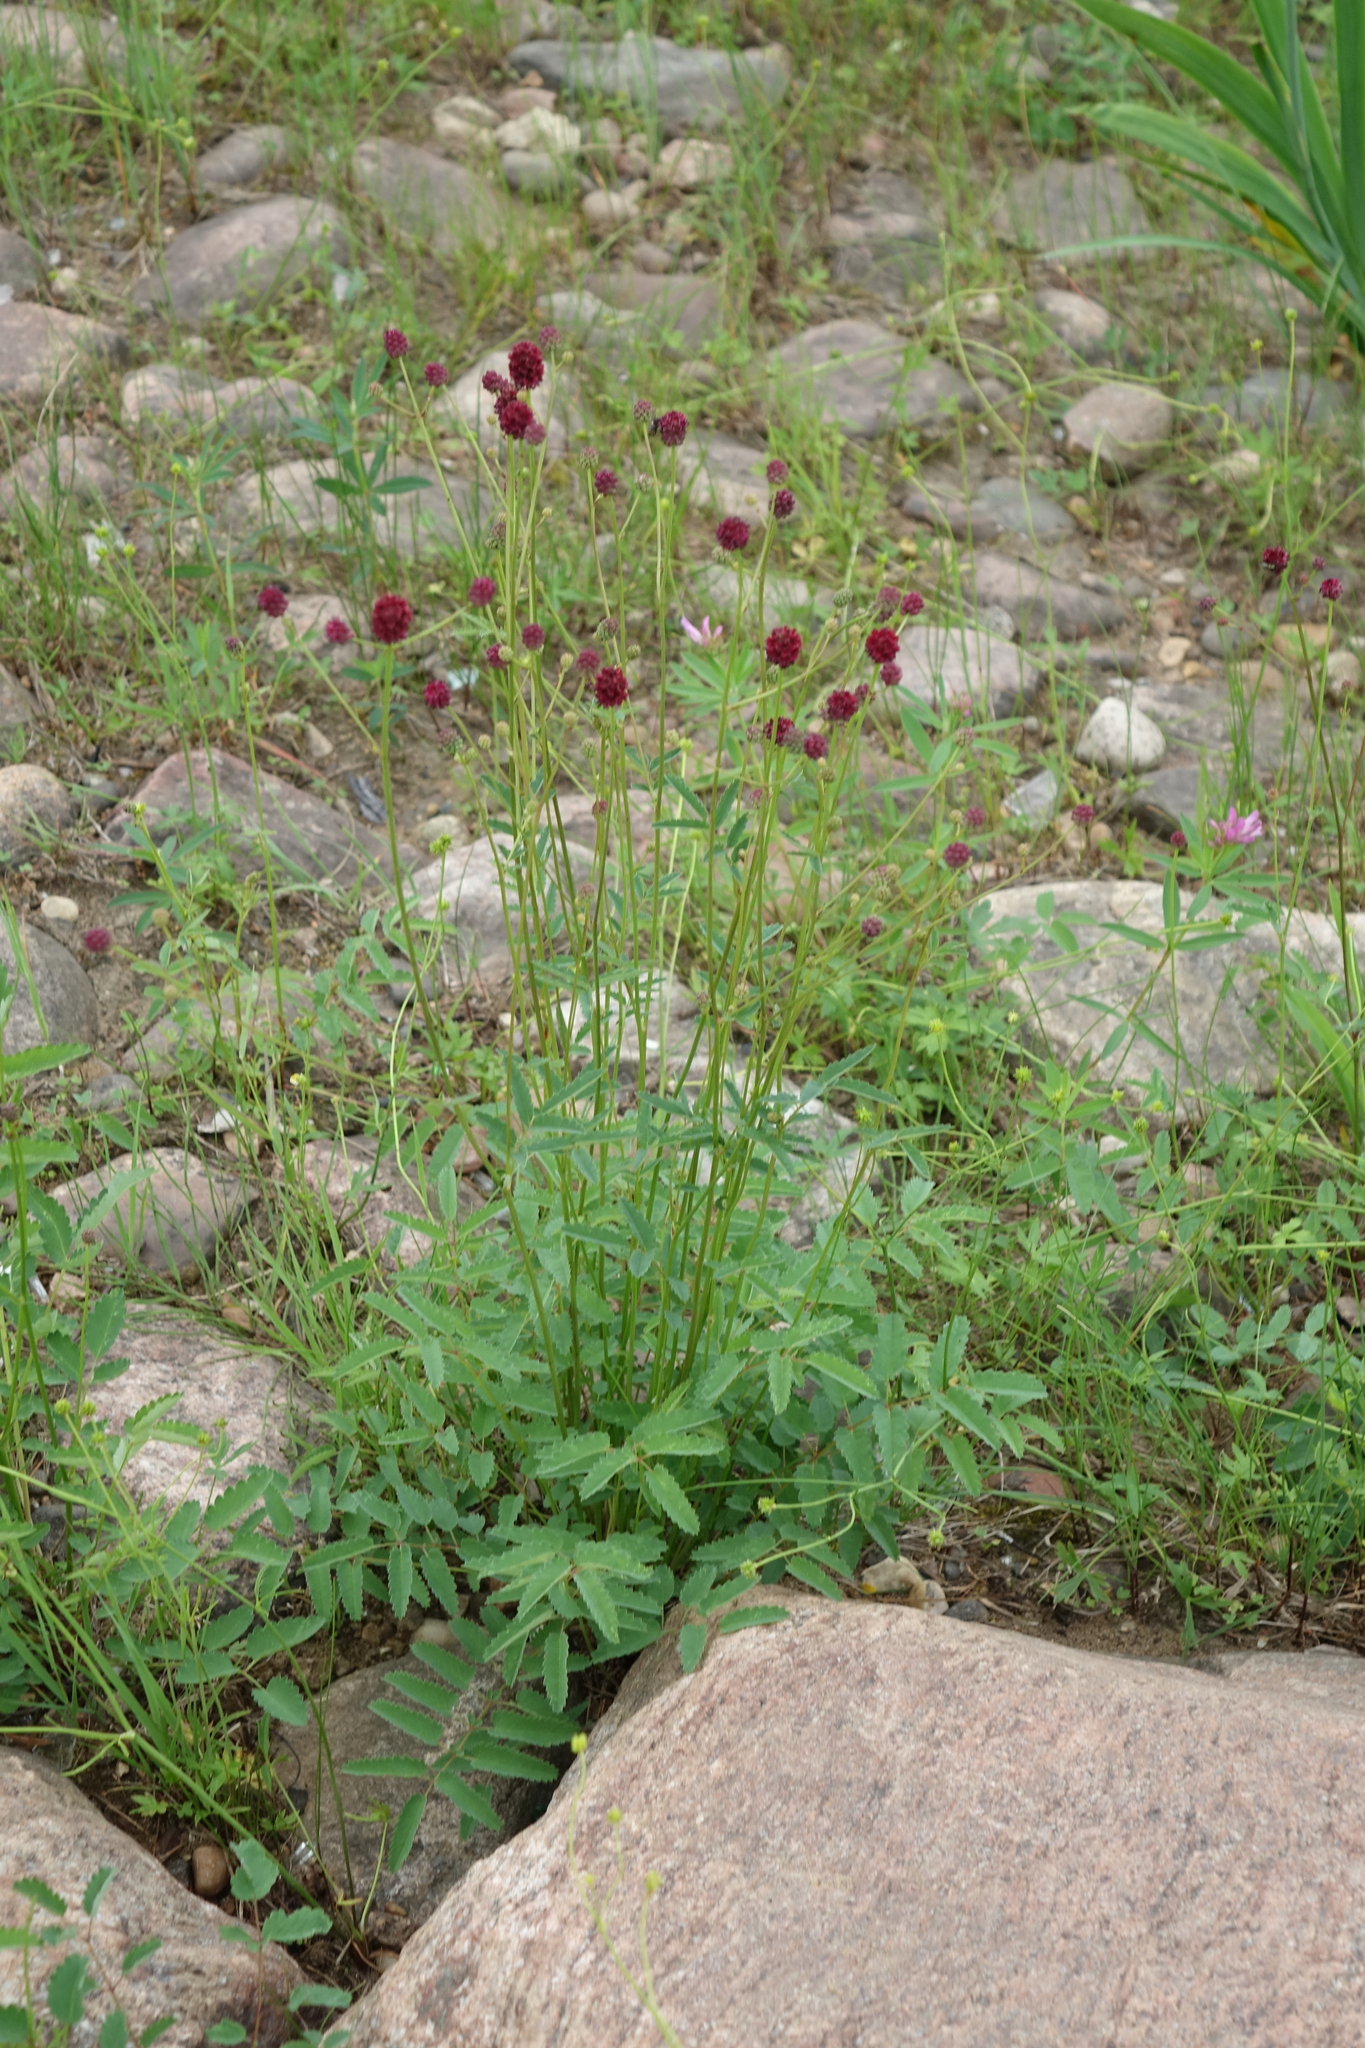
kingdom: Plantae
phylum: Tracheophyta
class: Magnoliopsida
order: Rosales
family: Rosaceae
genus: Sanguisorba
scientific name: Sanguisorba officinalis
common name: Great burnet
